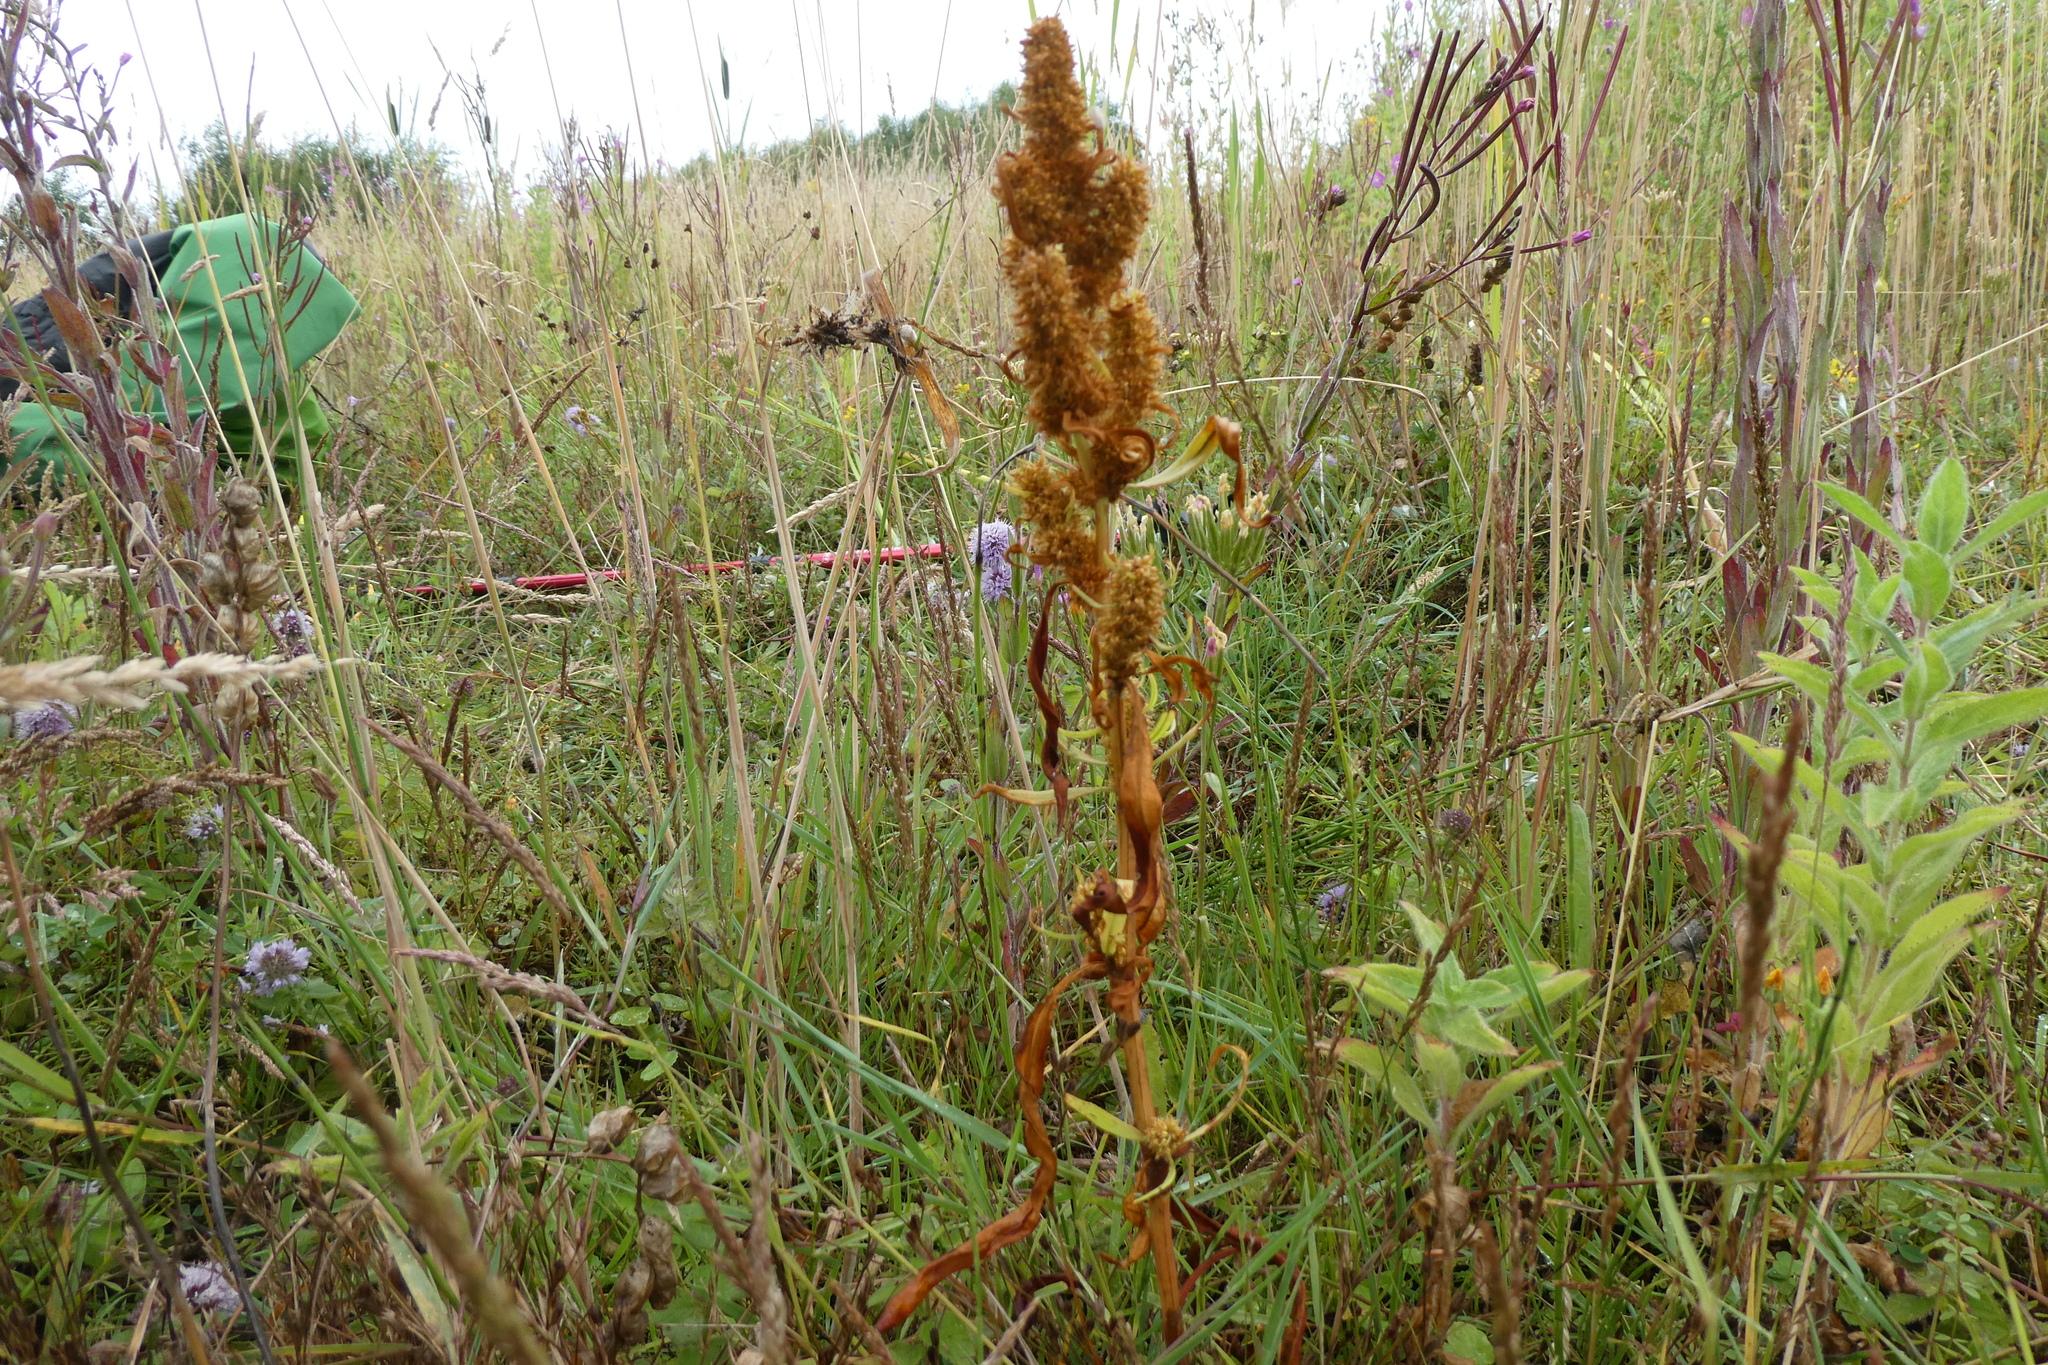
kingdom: Plantae
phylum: Tracheophyta
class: Magnoliopsida
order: Caryophyllales
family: Polygonaceae
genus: Rumex
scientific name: Rumex maritimus
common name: Golden dock
